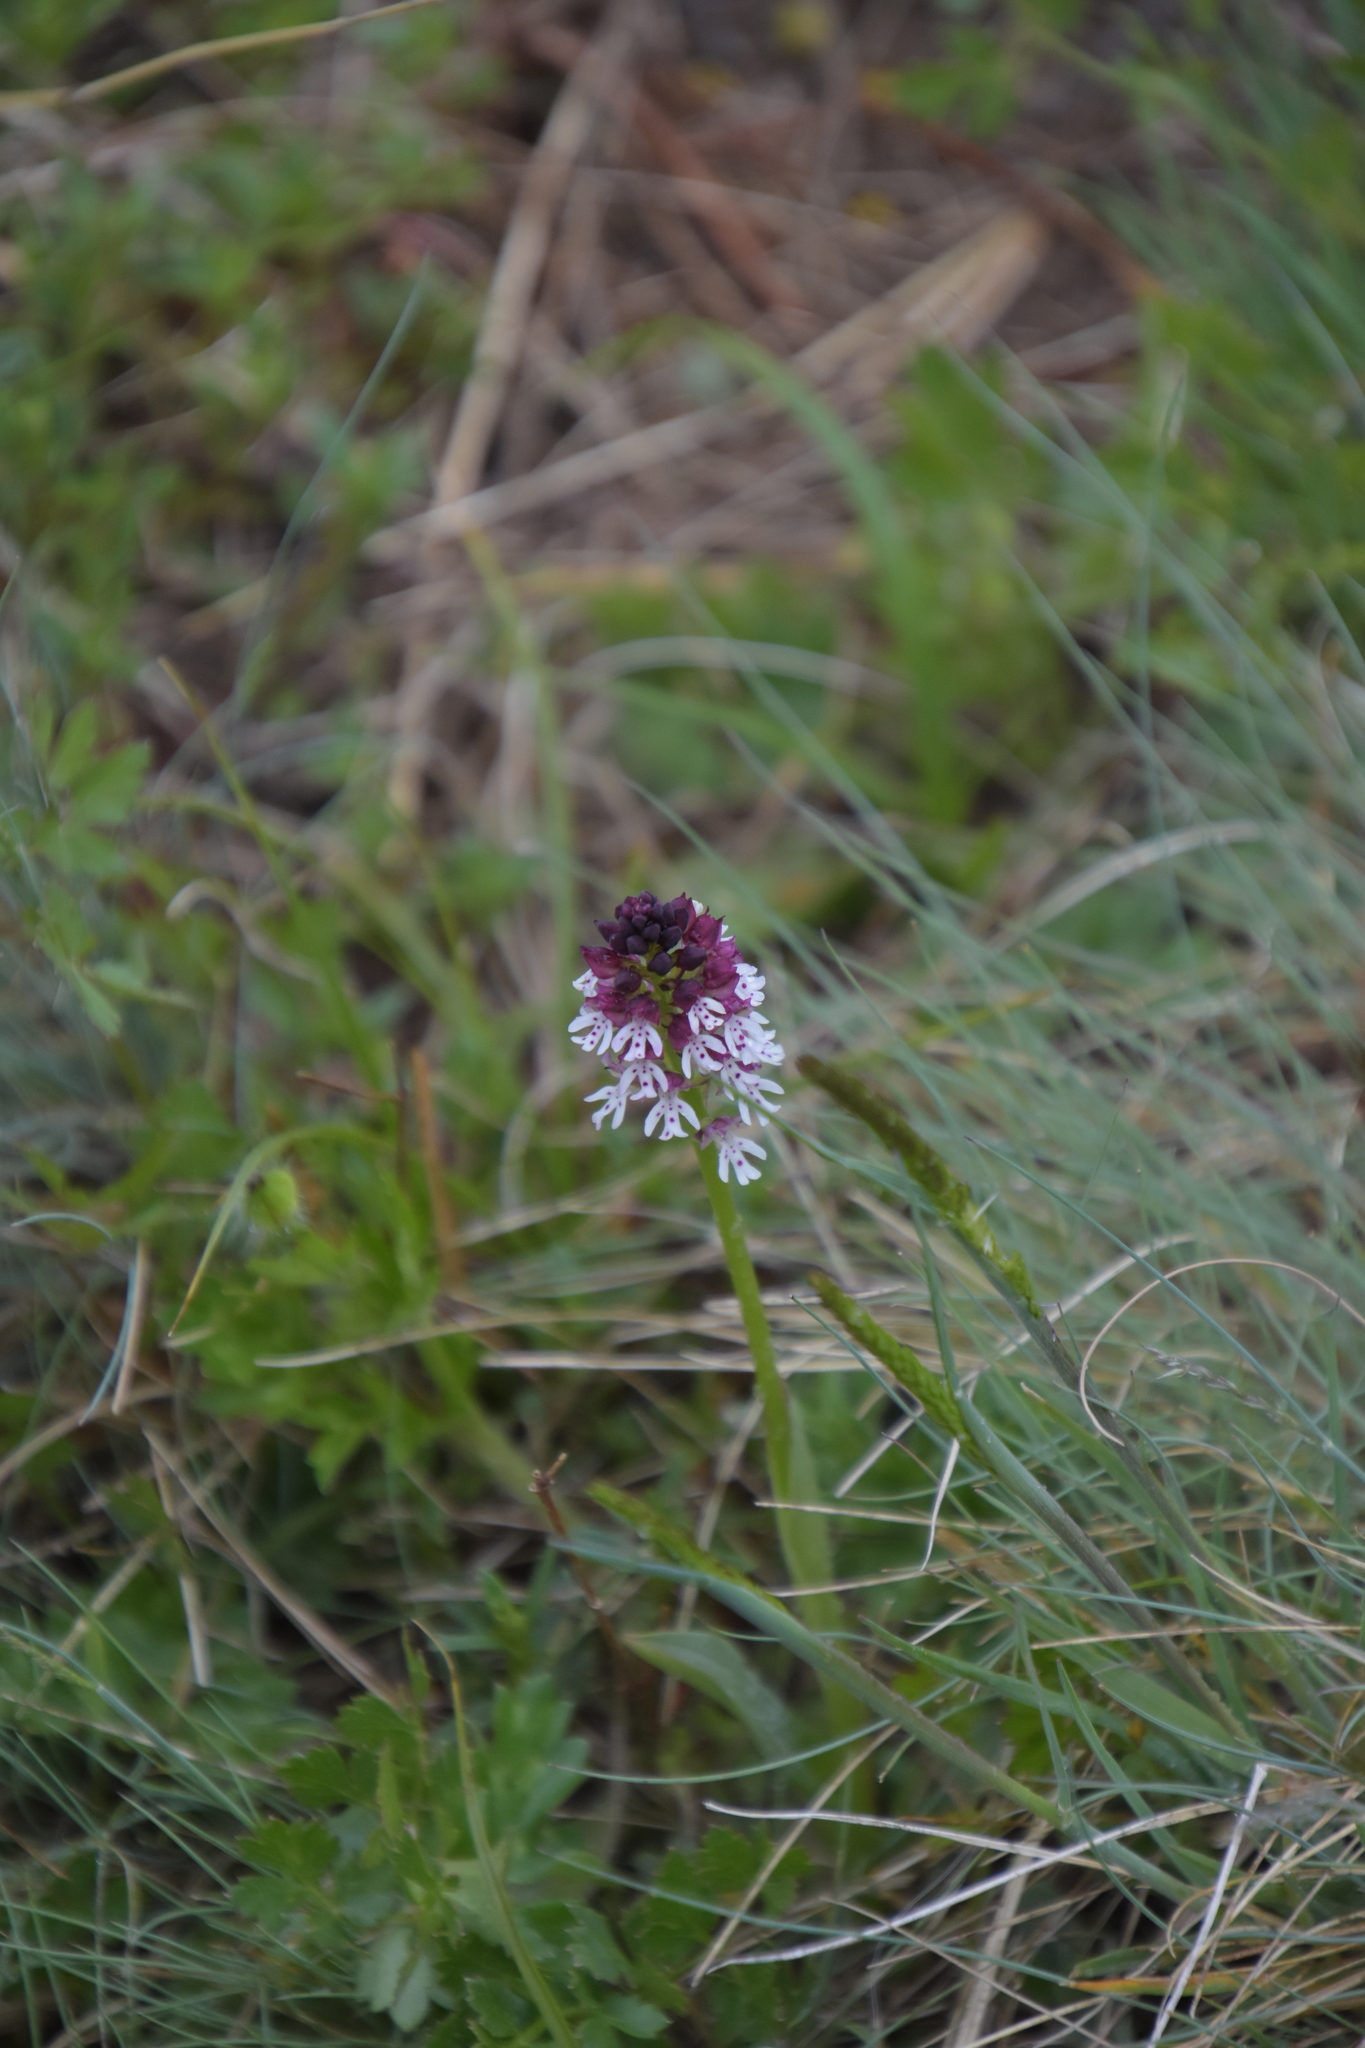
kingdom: Plantae
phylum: Tracheophyta
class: Liliopsida
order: Asparagales
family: Orchidaceae
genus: Neotinea
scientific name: Neotinea ustulata
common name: Burnt orchid
